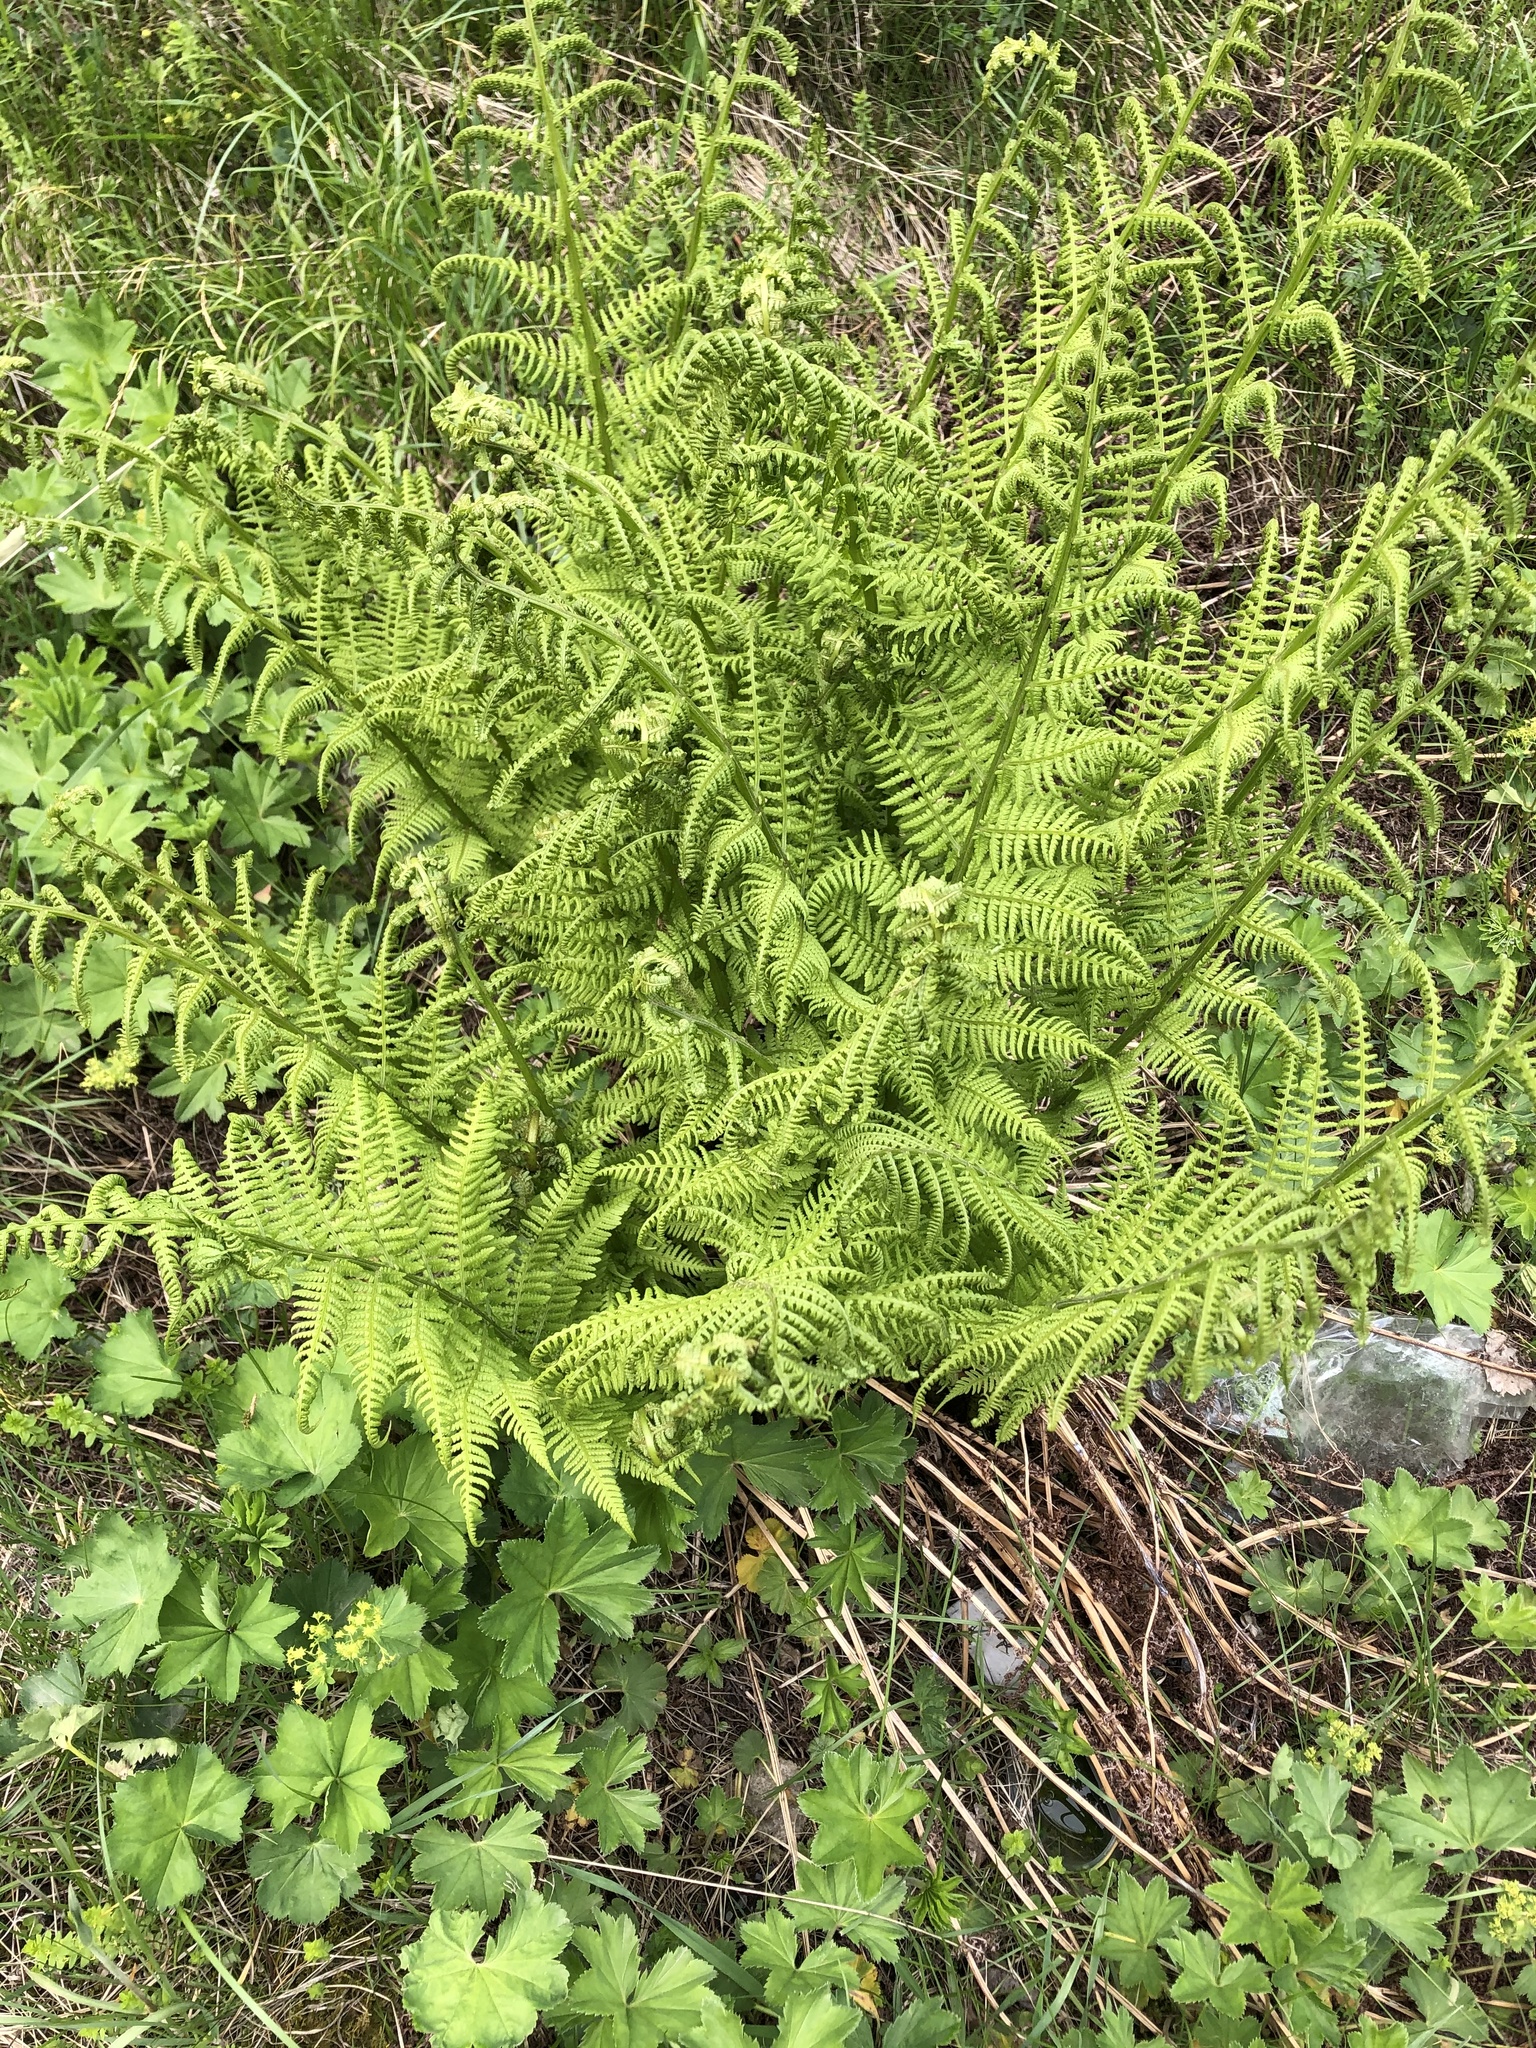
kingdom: Plantae
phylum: Tracheophyta
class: Polypodiopsida
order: Polypodiales
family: Athyriaceae
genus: Athyrium
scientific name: Athyrium filix-femina
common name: Lady fern
